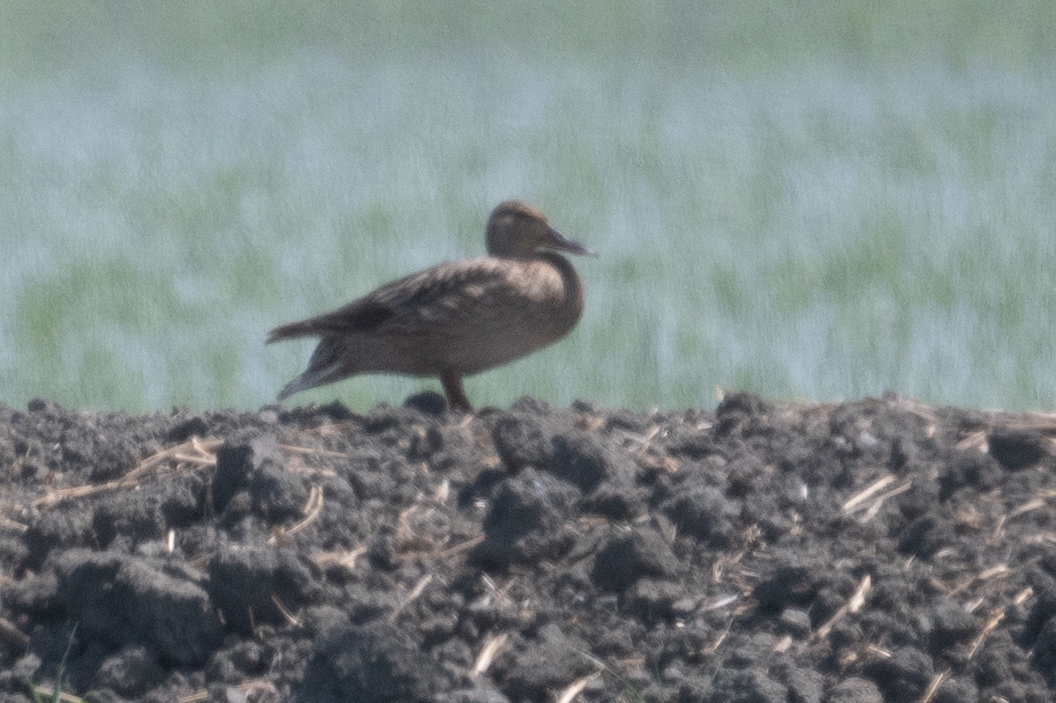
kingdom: Animalia
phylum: Chordata
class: Aves
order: Anseriformes
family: Anatidae
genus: Anas
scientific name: Anas platyrhynchos
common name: Mallard
